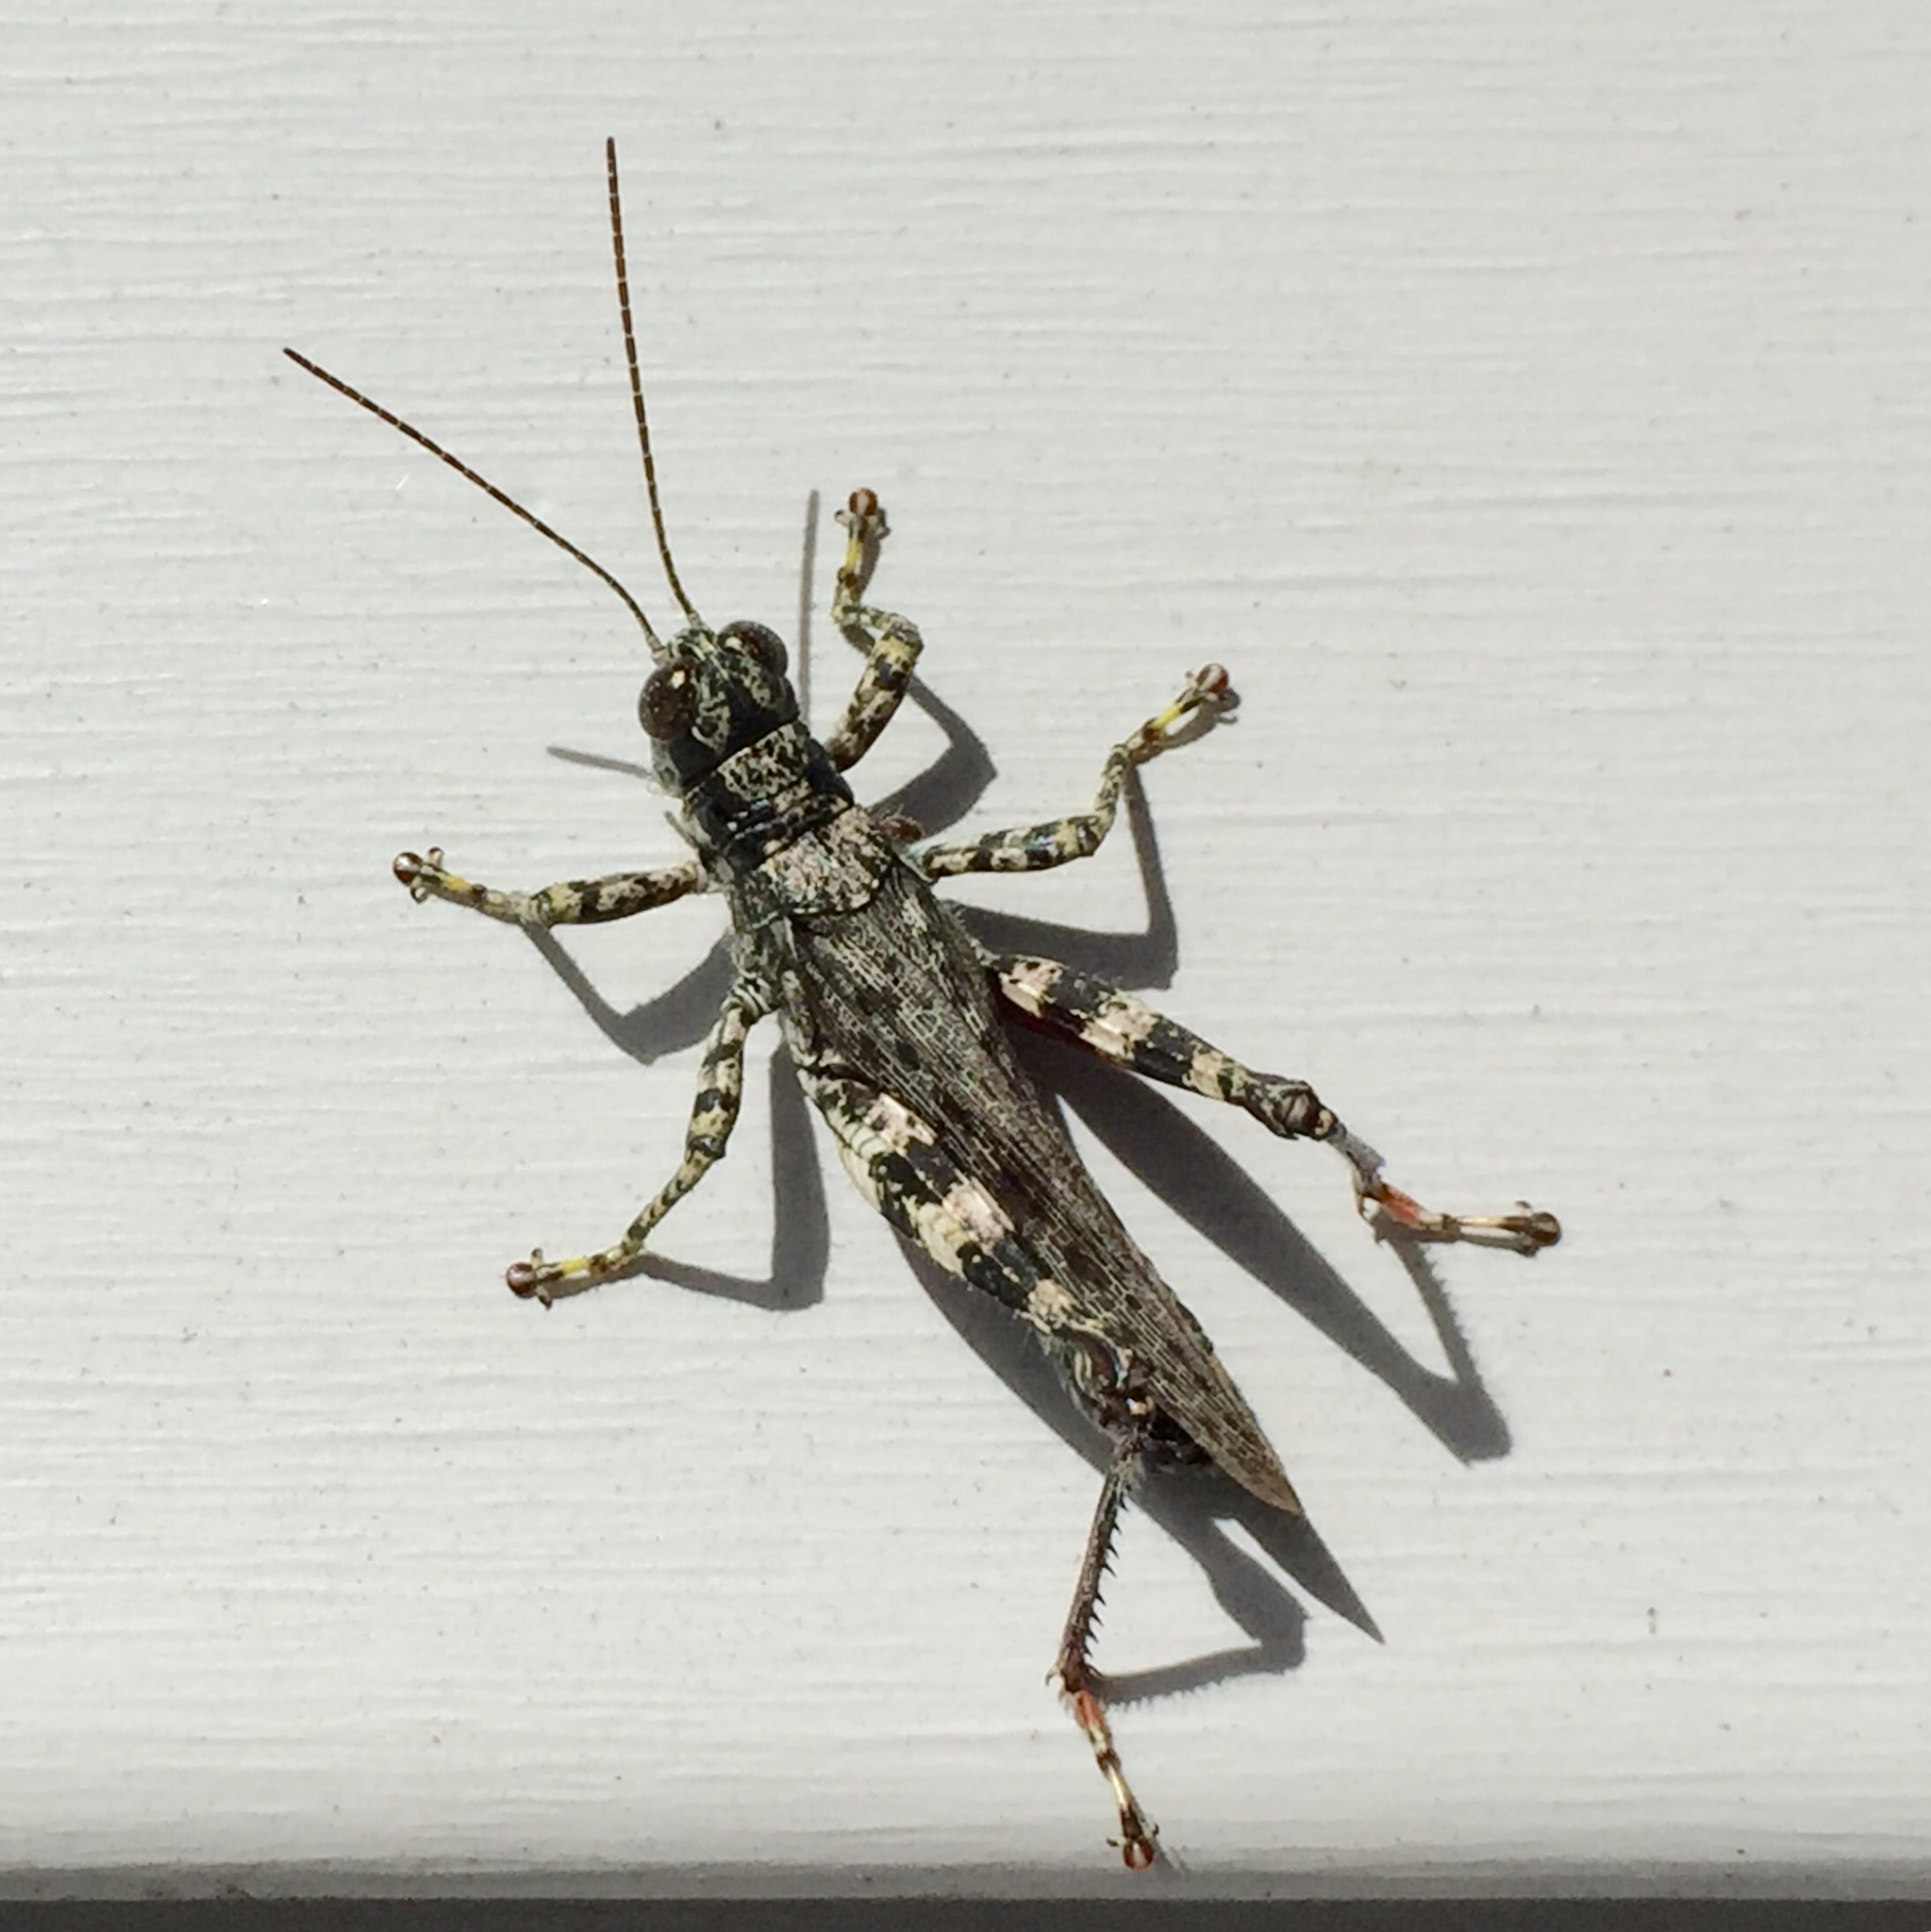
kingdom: Animalia
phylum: Arthropoda
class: Insecta
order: Orthoptera
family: Acrididae
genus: Melanoplus
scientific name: Melanoplus punctulatus
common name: Pine-tree spur-throat grasshopper
